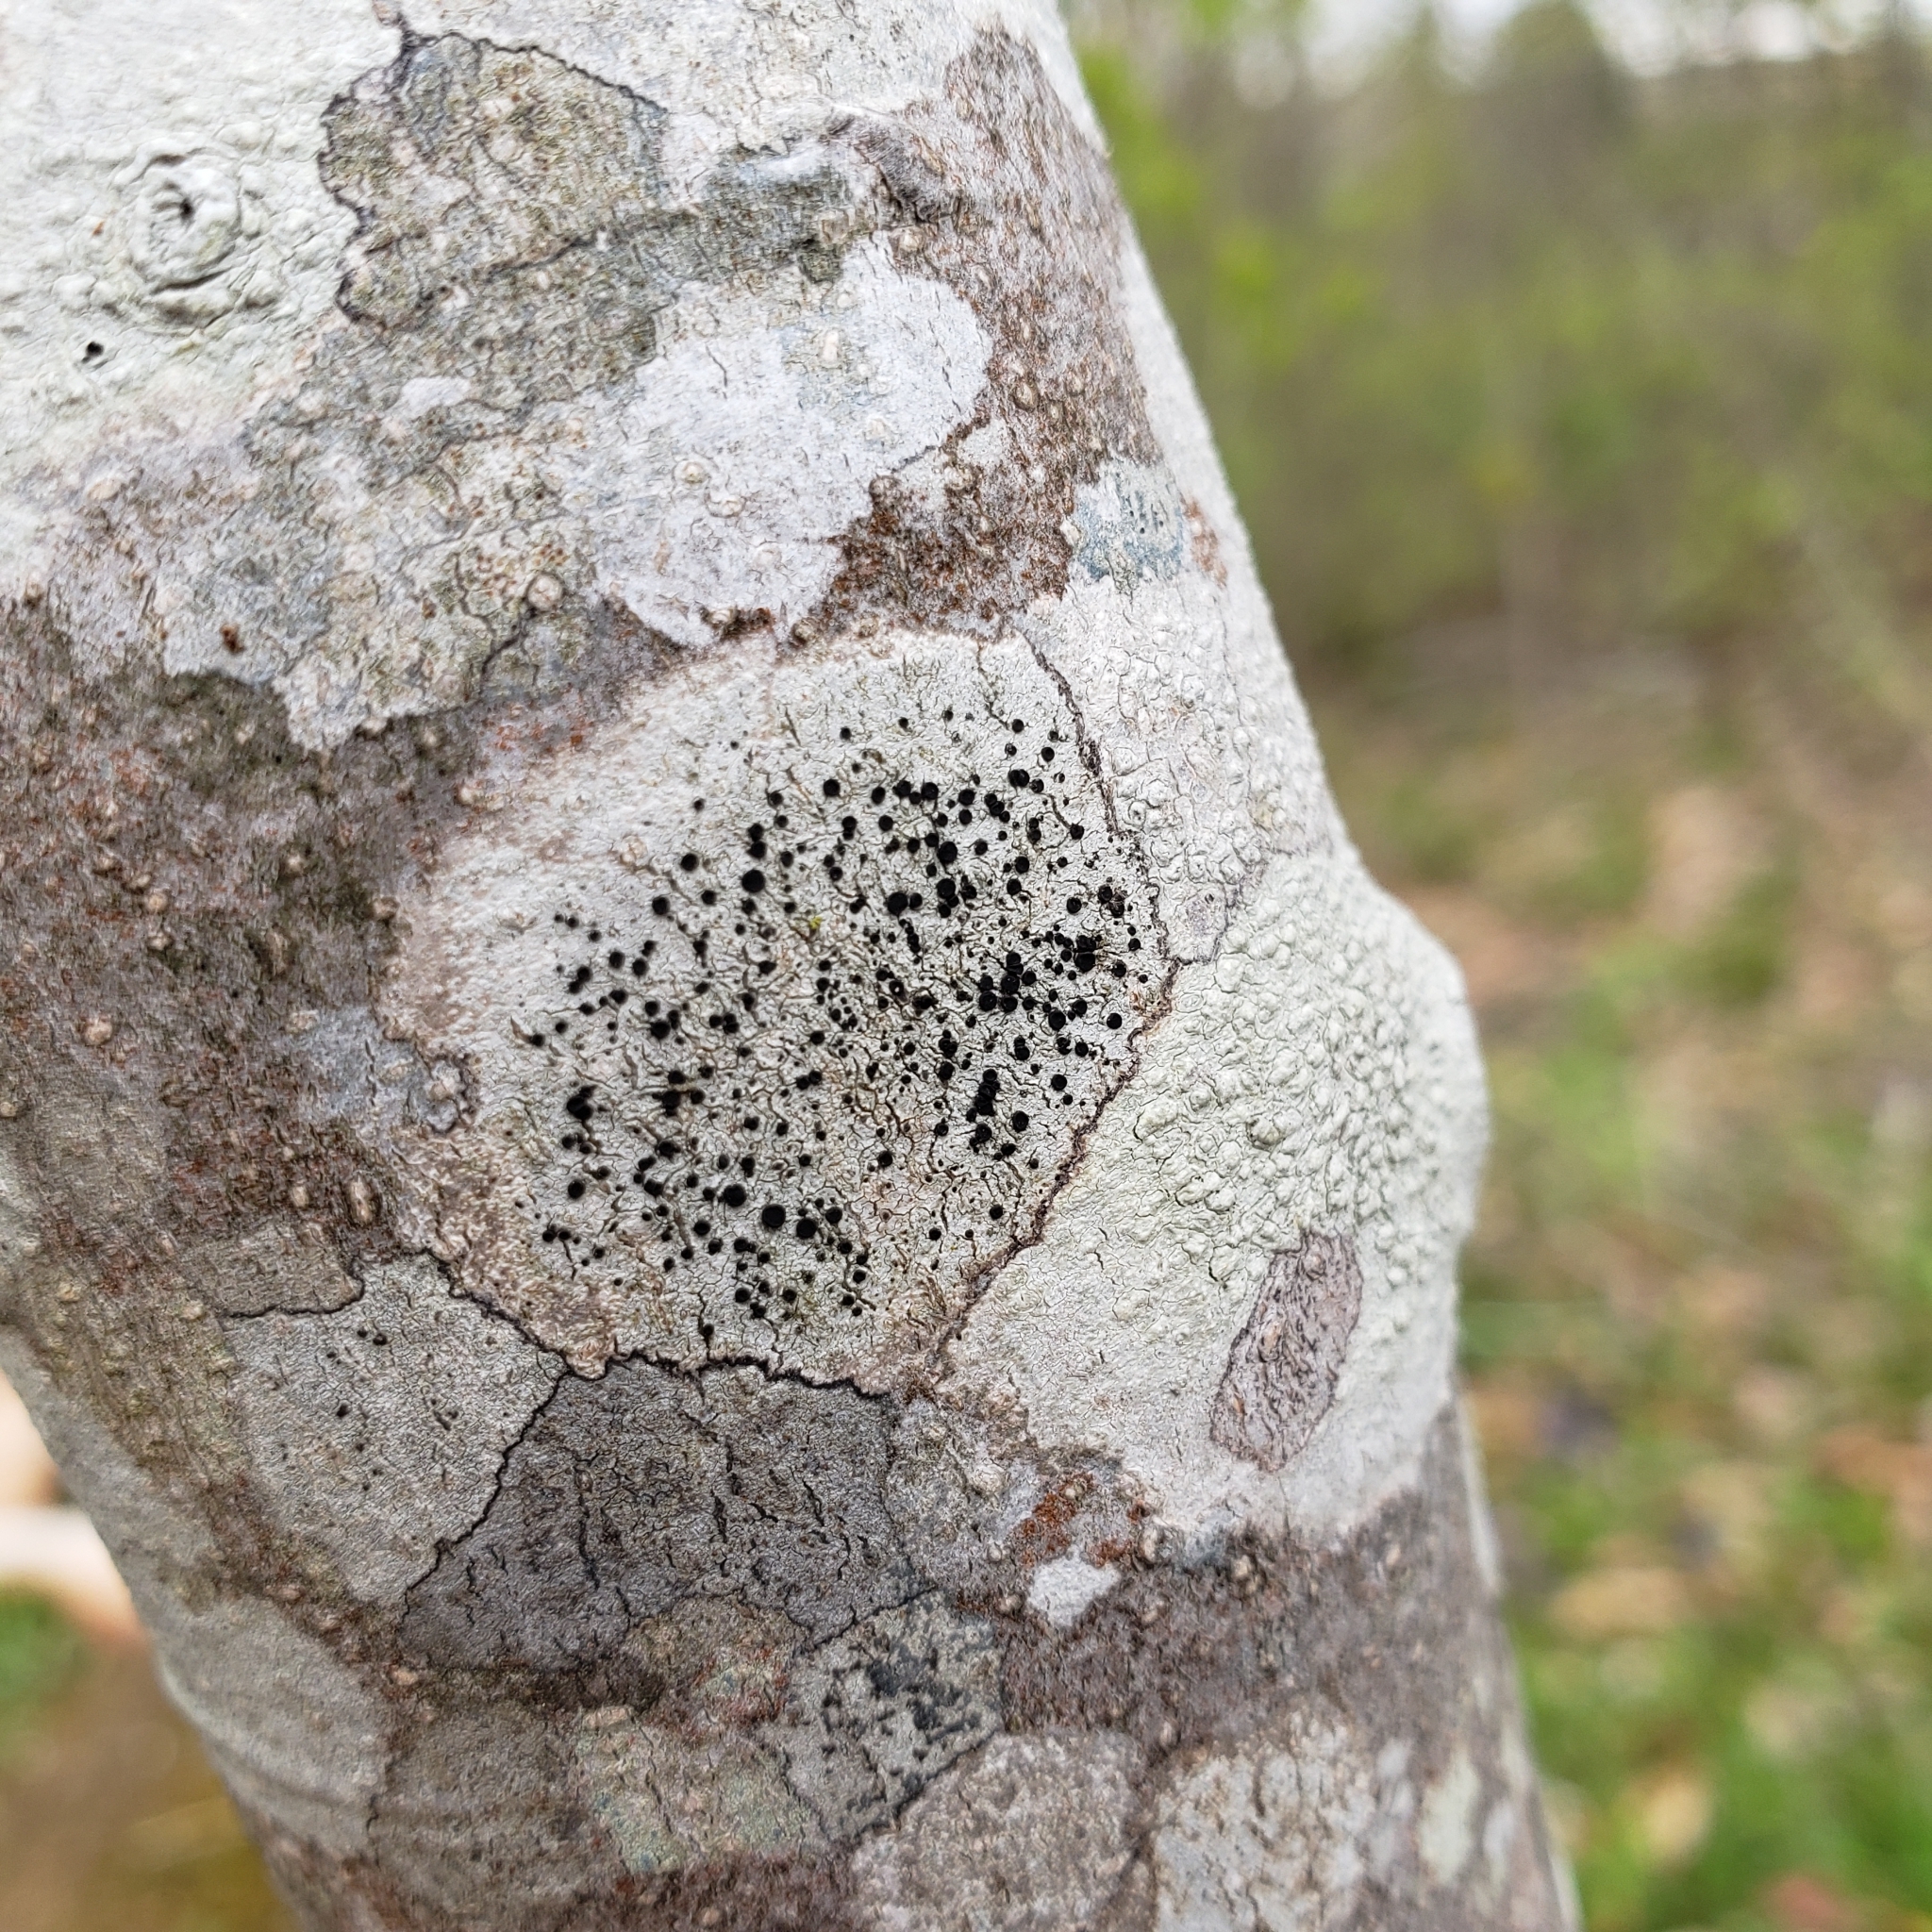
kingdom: Fungi
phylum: Ascomycota
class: Lecanoromycetes
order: Caliciales
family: Caliciaceae
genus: Buellia
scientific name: Buellia erubescens
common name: Common button lichen
